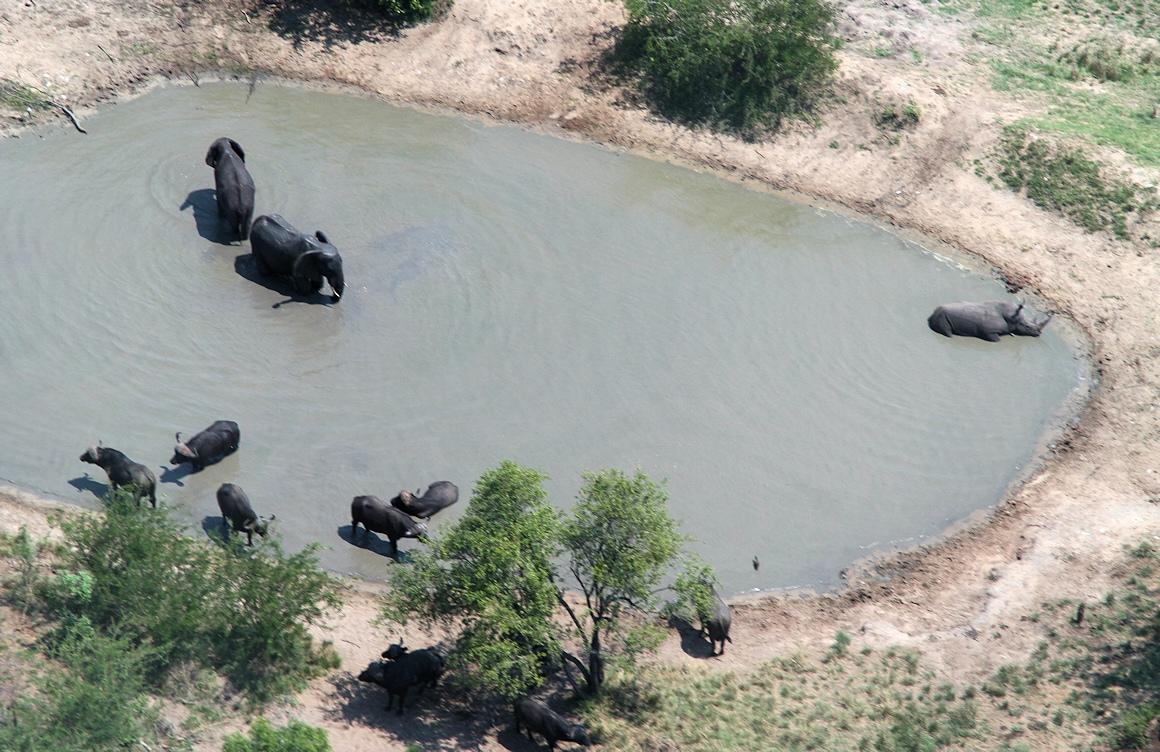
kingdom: Animalia
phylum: Chordata
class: Mammalia
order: Perissodactyla
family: Rhinocerotidae
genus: Ceratotherium
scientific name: Ceratotherium simum
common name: White rhinoceros
